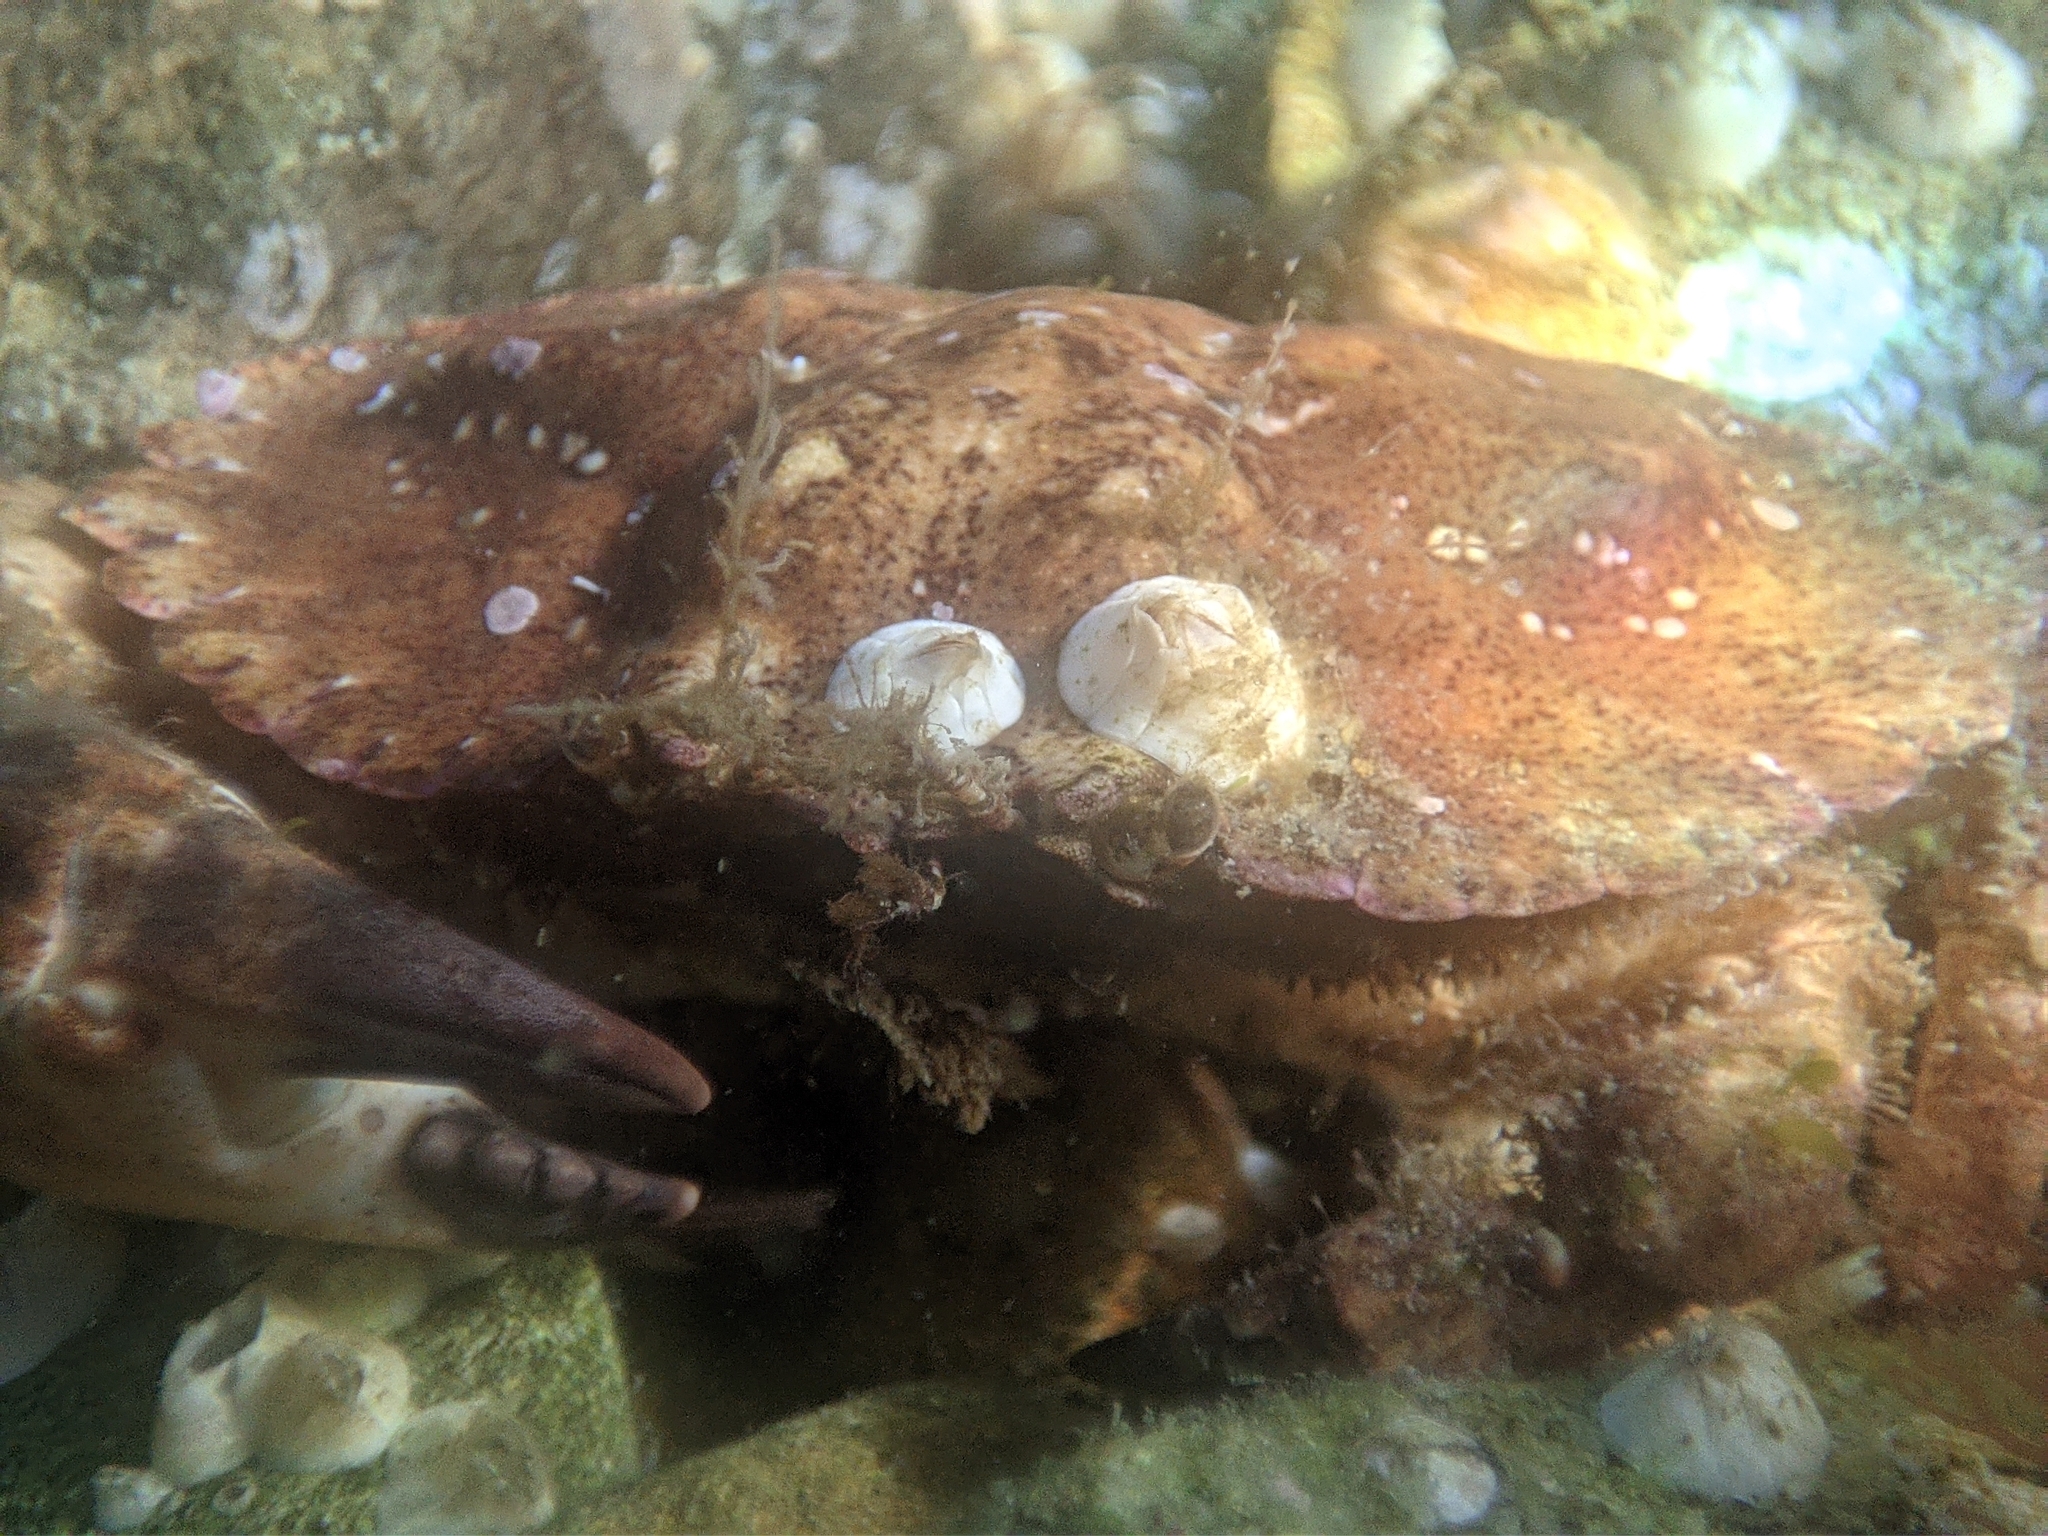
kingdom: Animalia
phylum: Arthropoda
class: Malacostraca
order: Decapoda
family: Cancridae
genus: Glebocarcinus
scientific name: Glebocarcinus amphioetus
